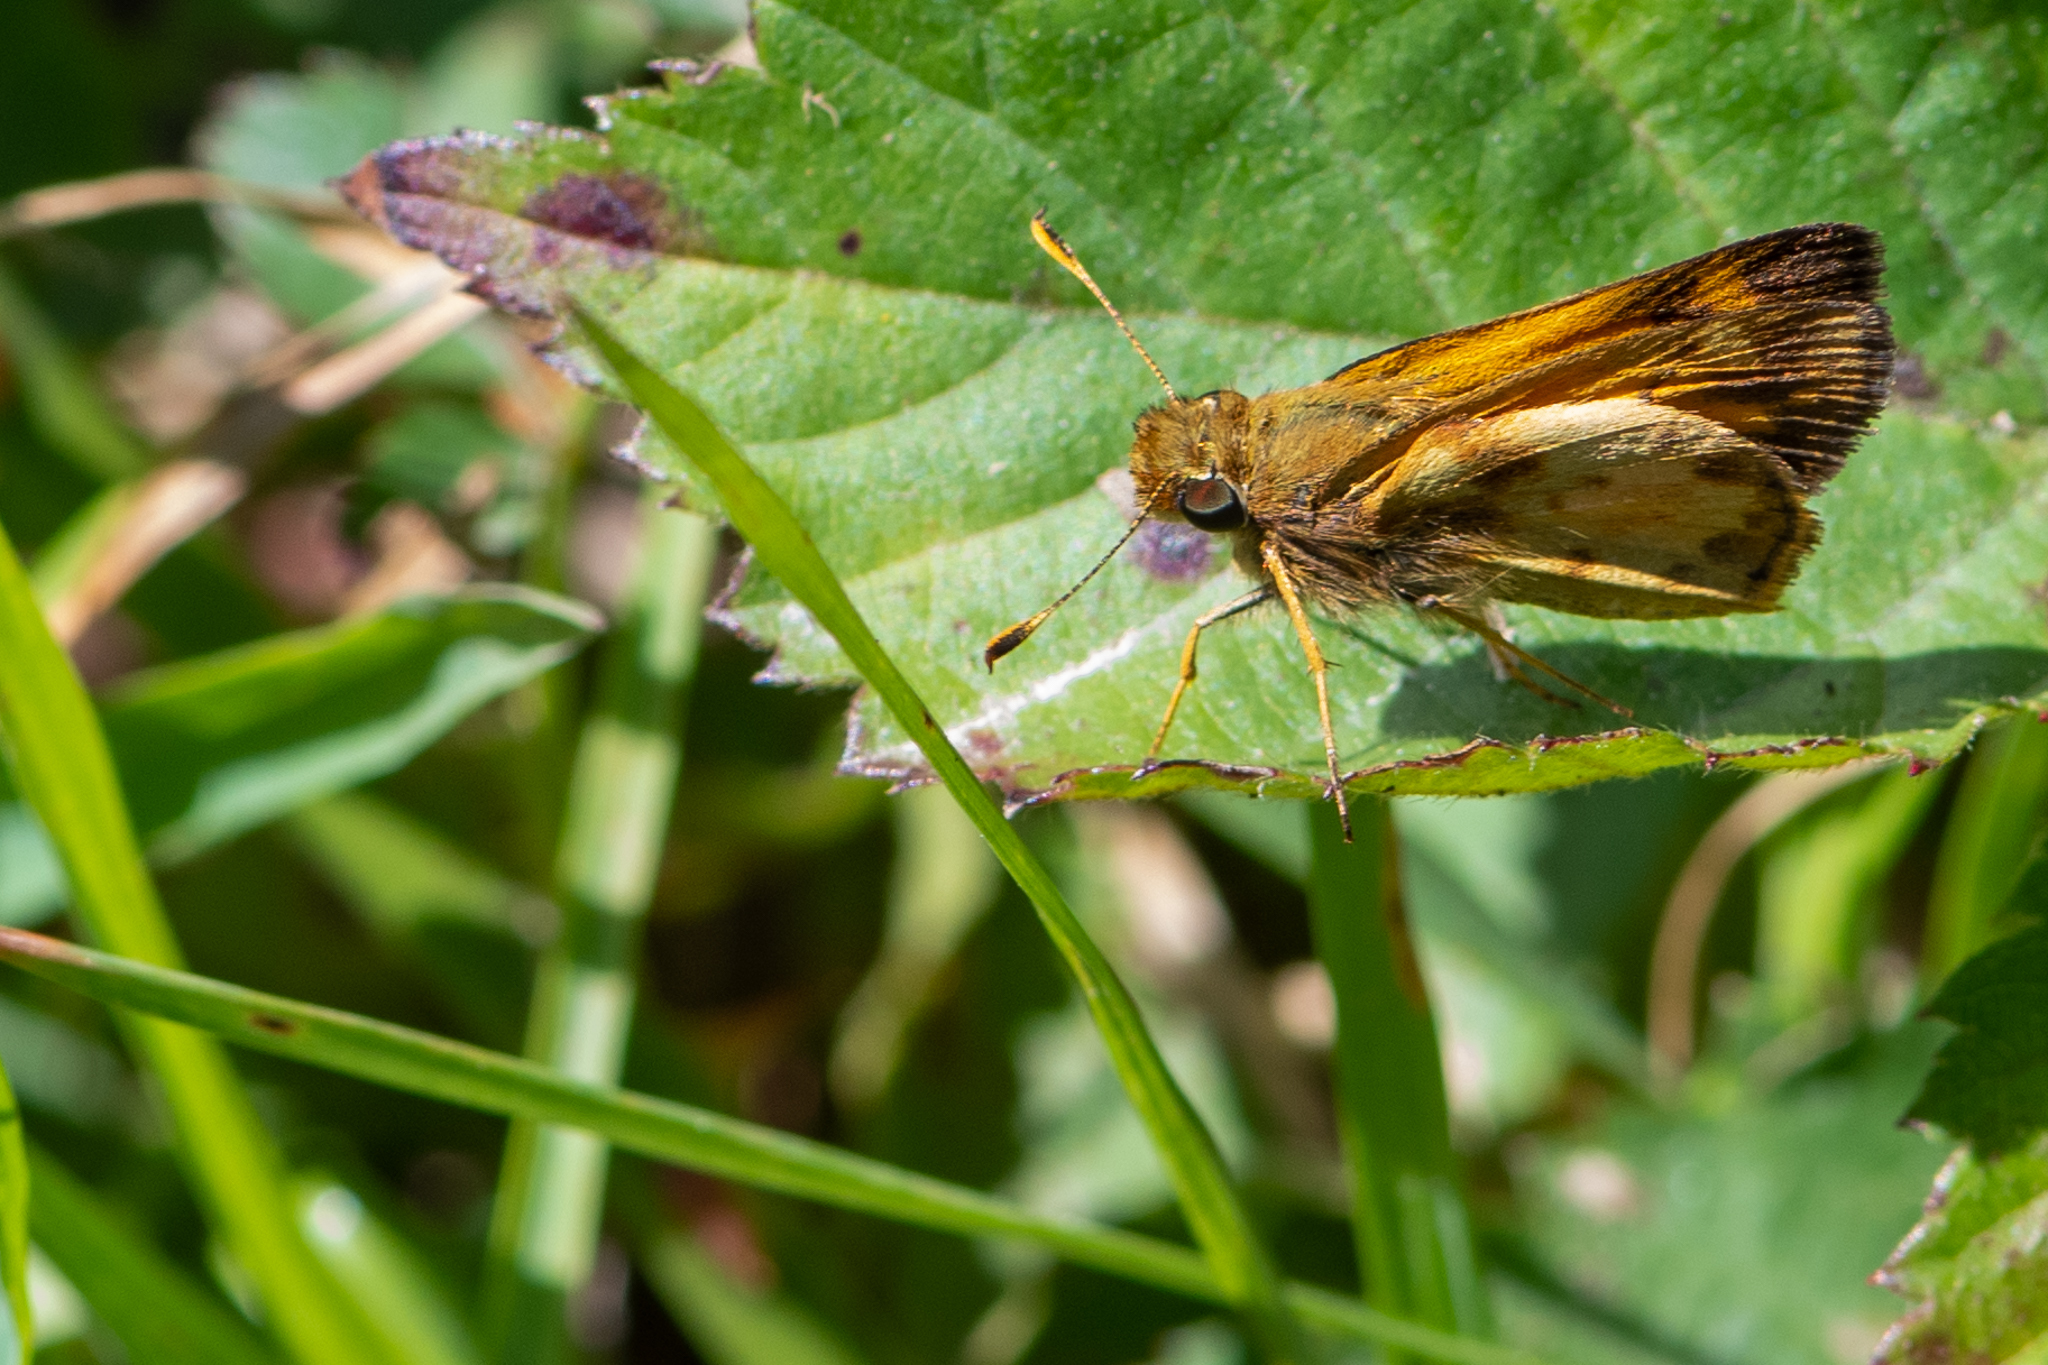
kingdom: Animalia
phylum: Arthropoda
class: Insecta
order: Lepidoptera
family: Hesperiidae
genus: Lon
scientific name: Lon zabulon
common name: Zabulon skipper
